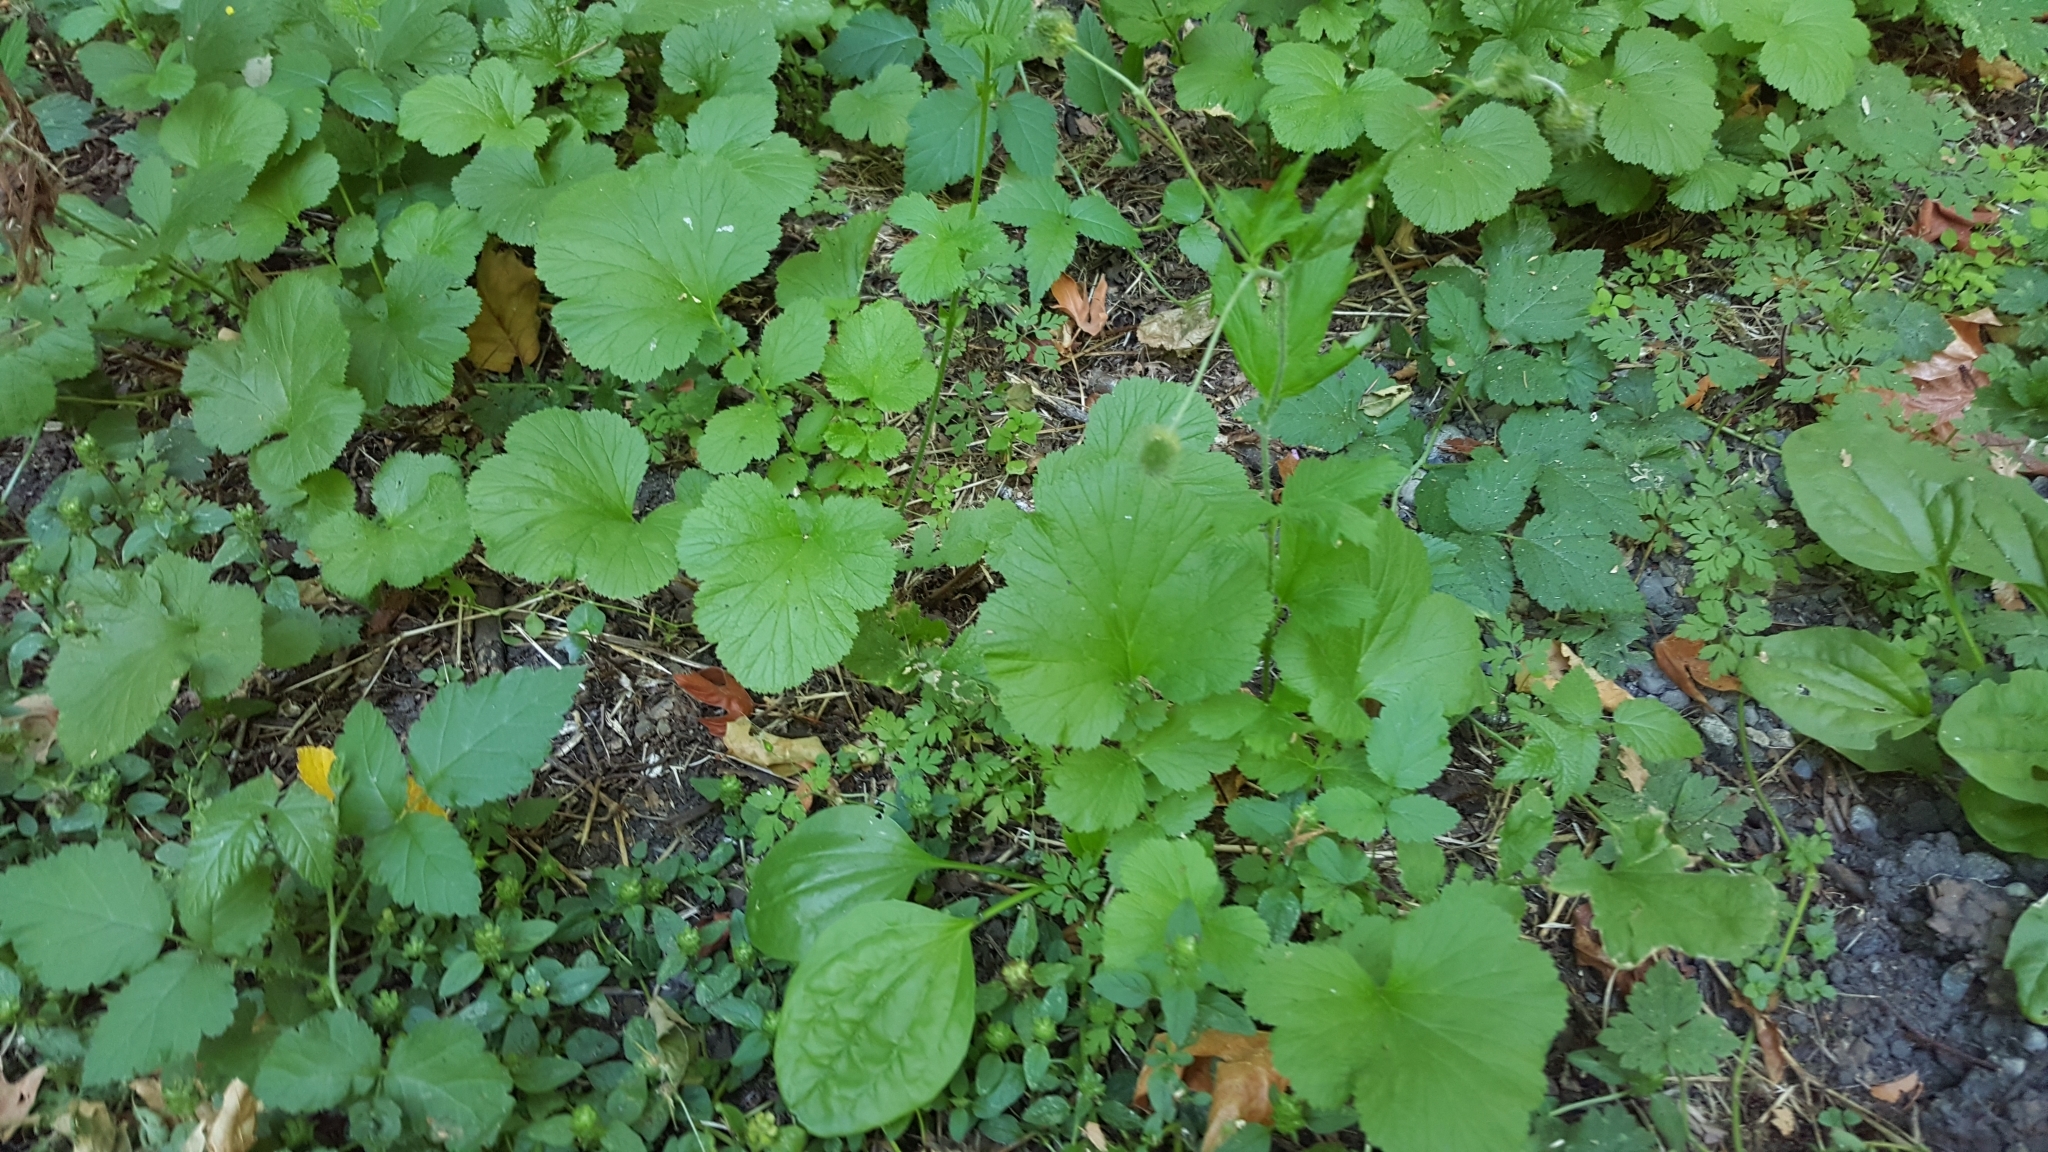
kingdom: Plantae
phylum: Tracheophyta
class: Magnoliopsida
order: Rosales
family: Rosaceae
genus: Geum
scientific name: Geum macrophyllum
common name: Large-leaved avens
